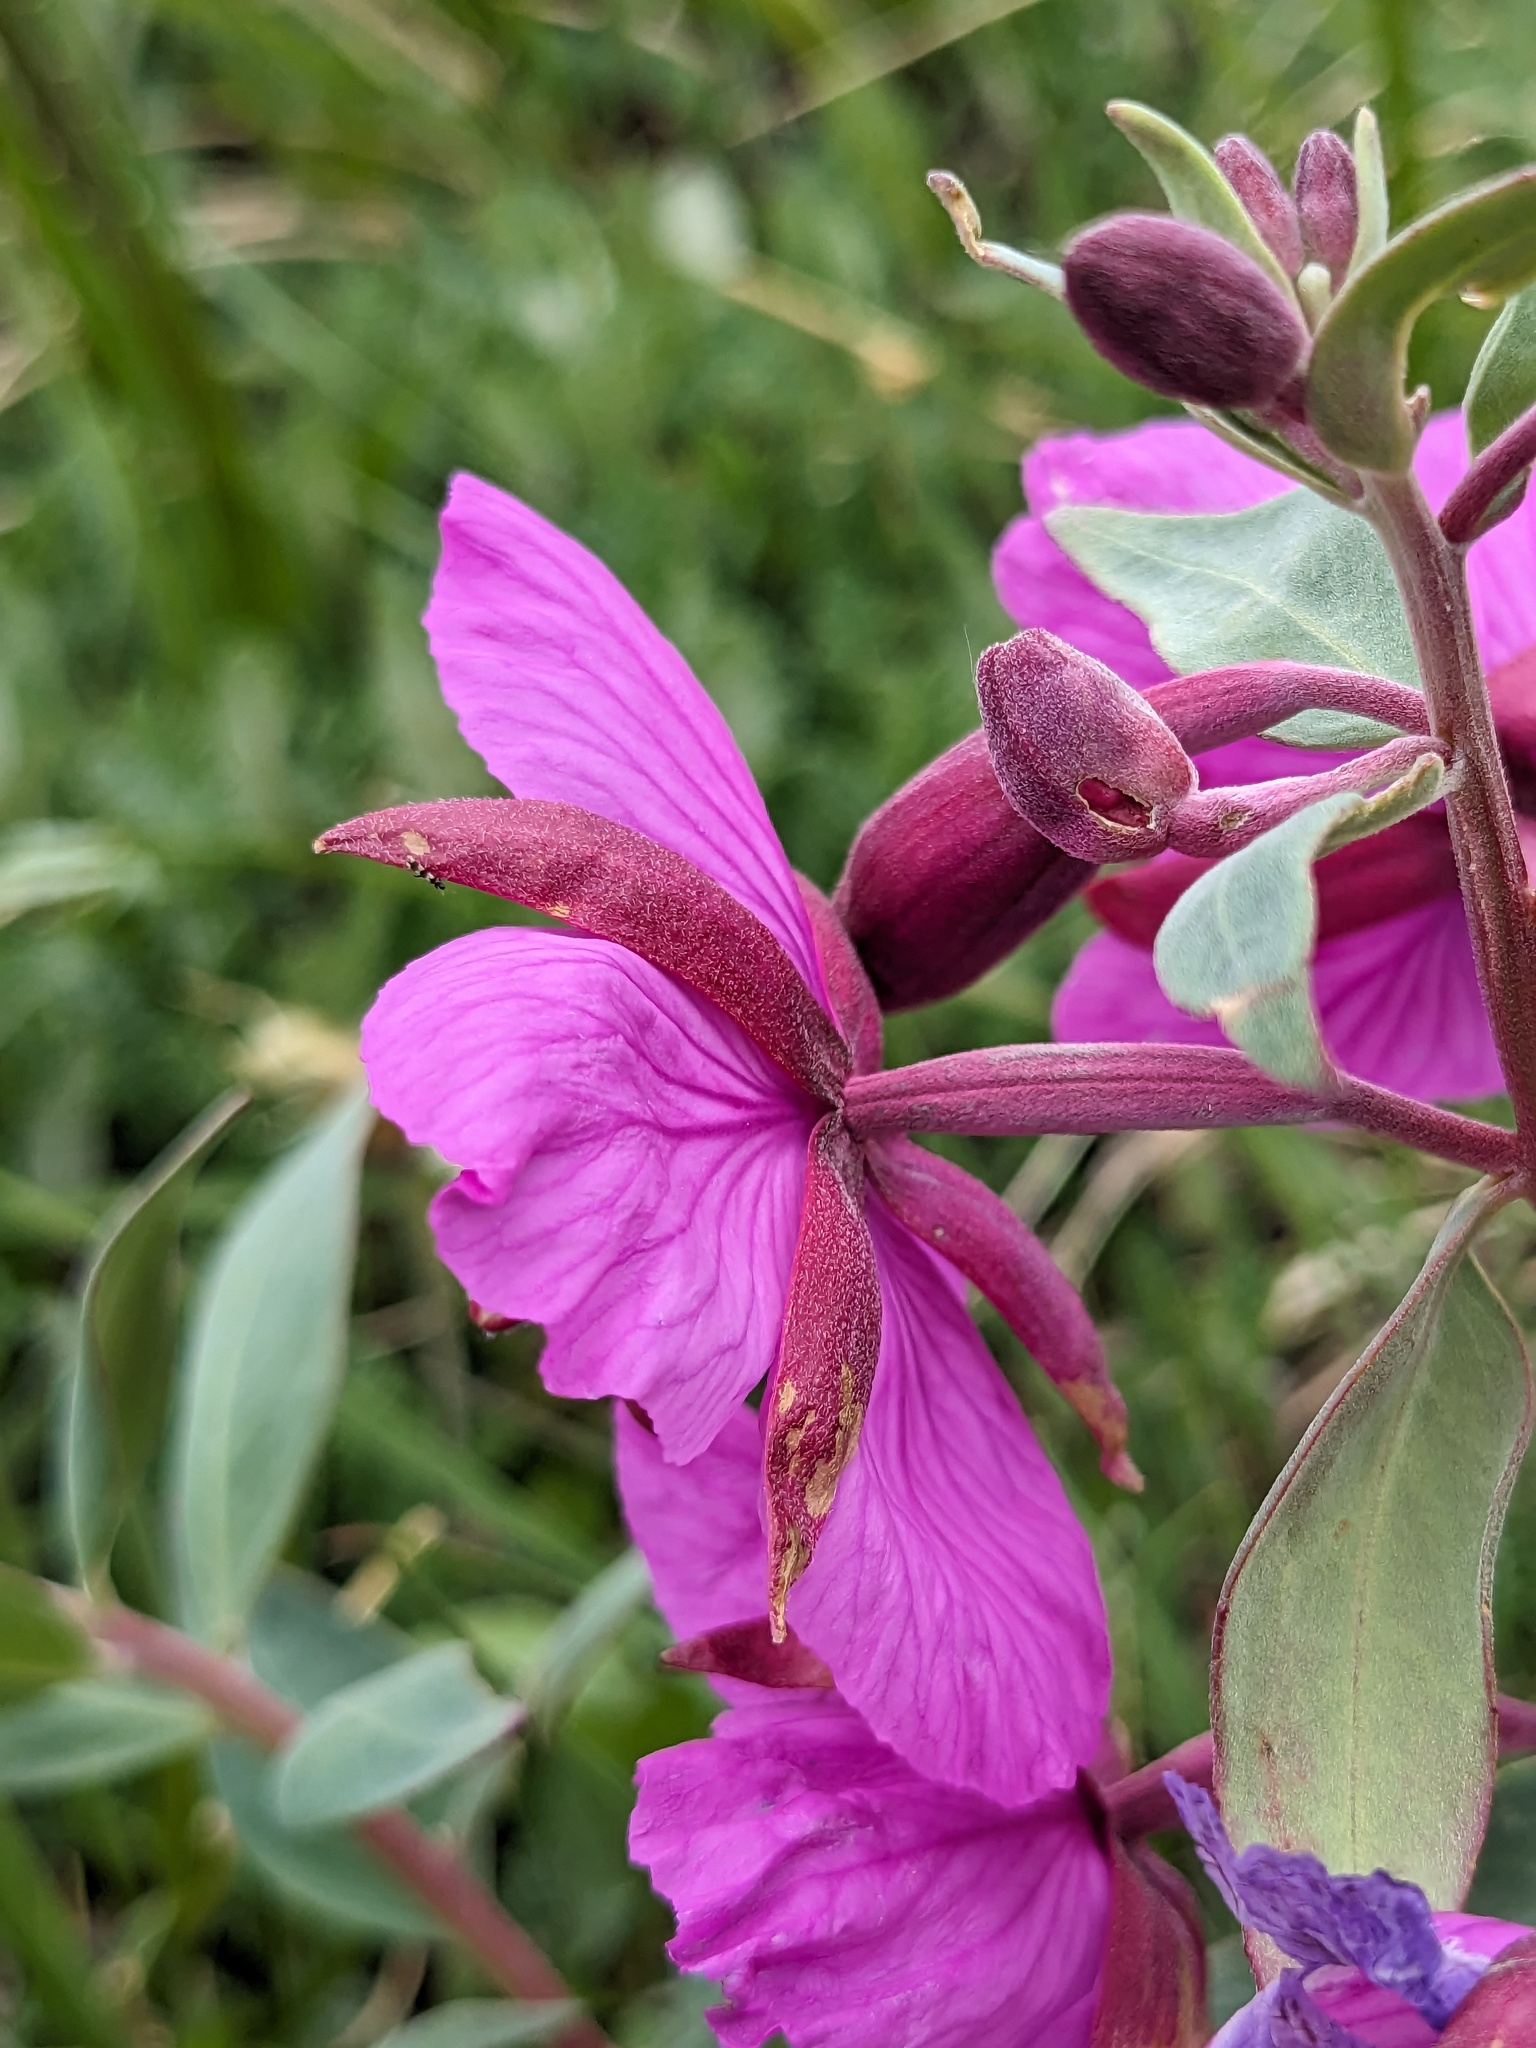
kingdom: Plantae
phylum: Tracheophyta
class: Magnoliopsida
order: Myrtales
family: Onagraceae
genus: Chamaenerion
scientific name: Chamaenerion latifolium
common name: Dwarf fireweed
